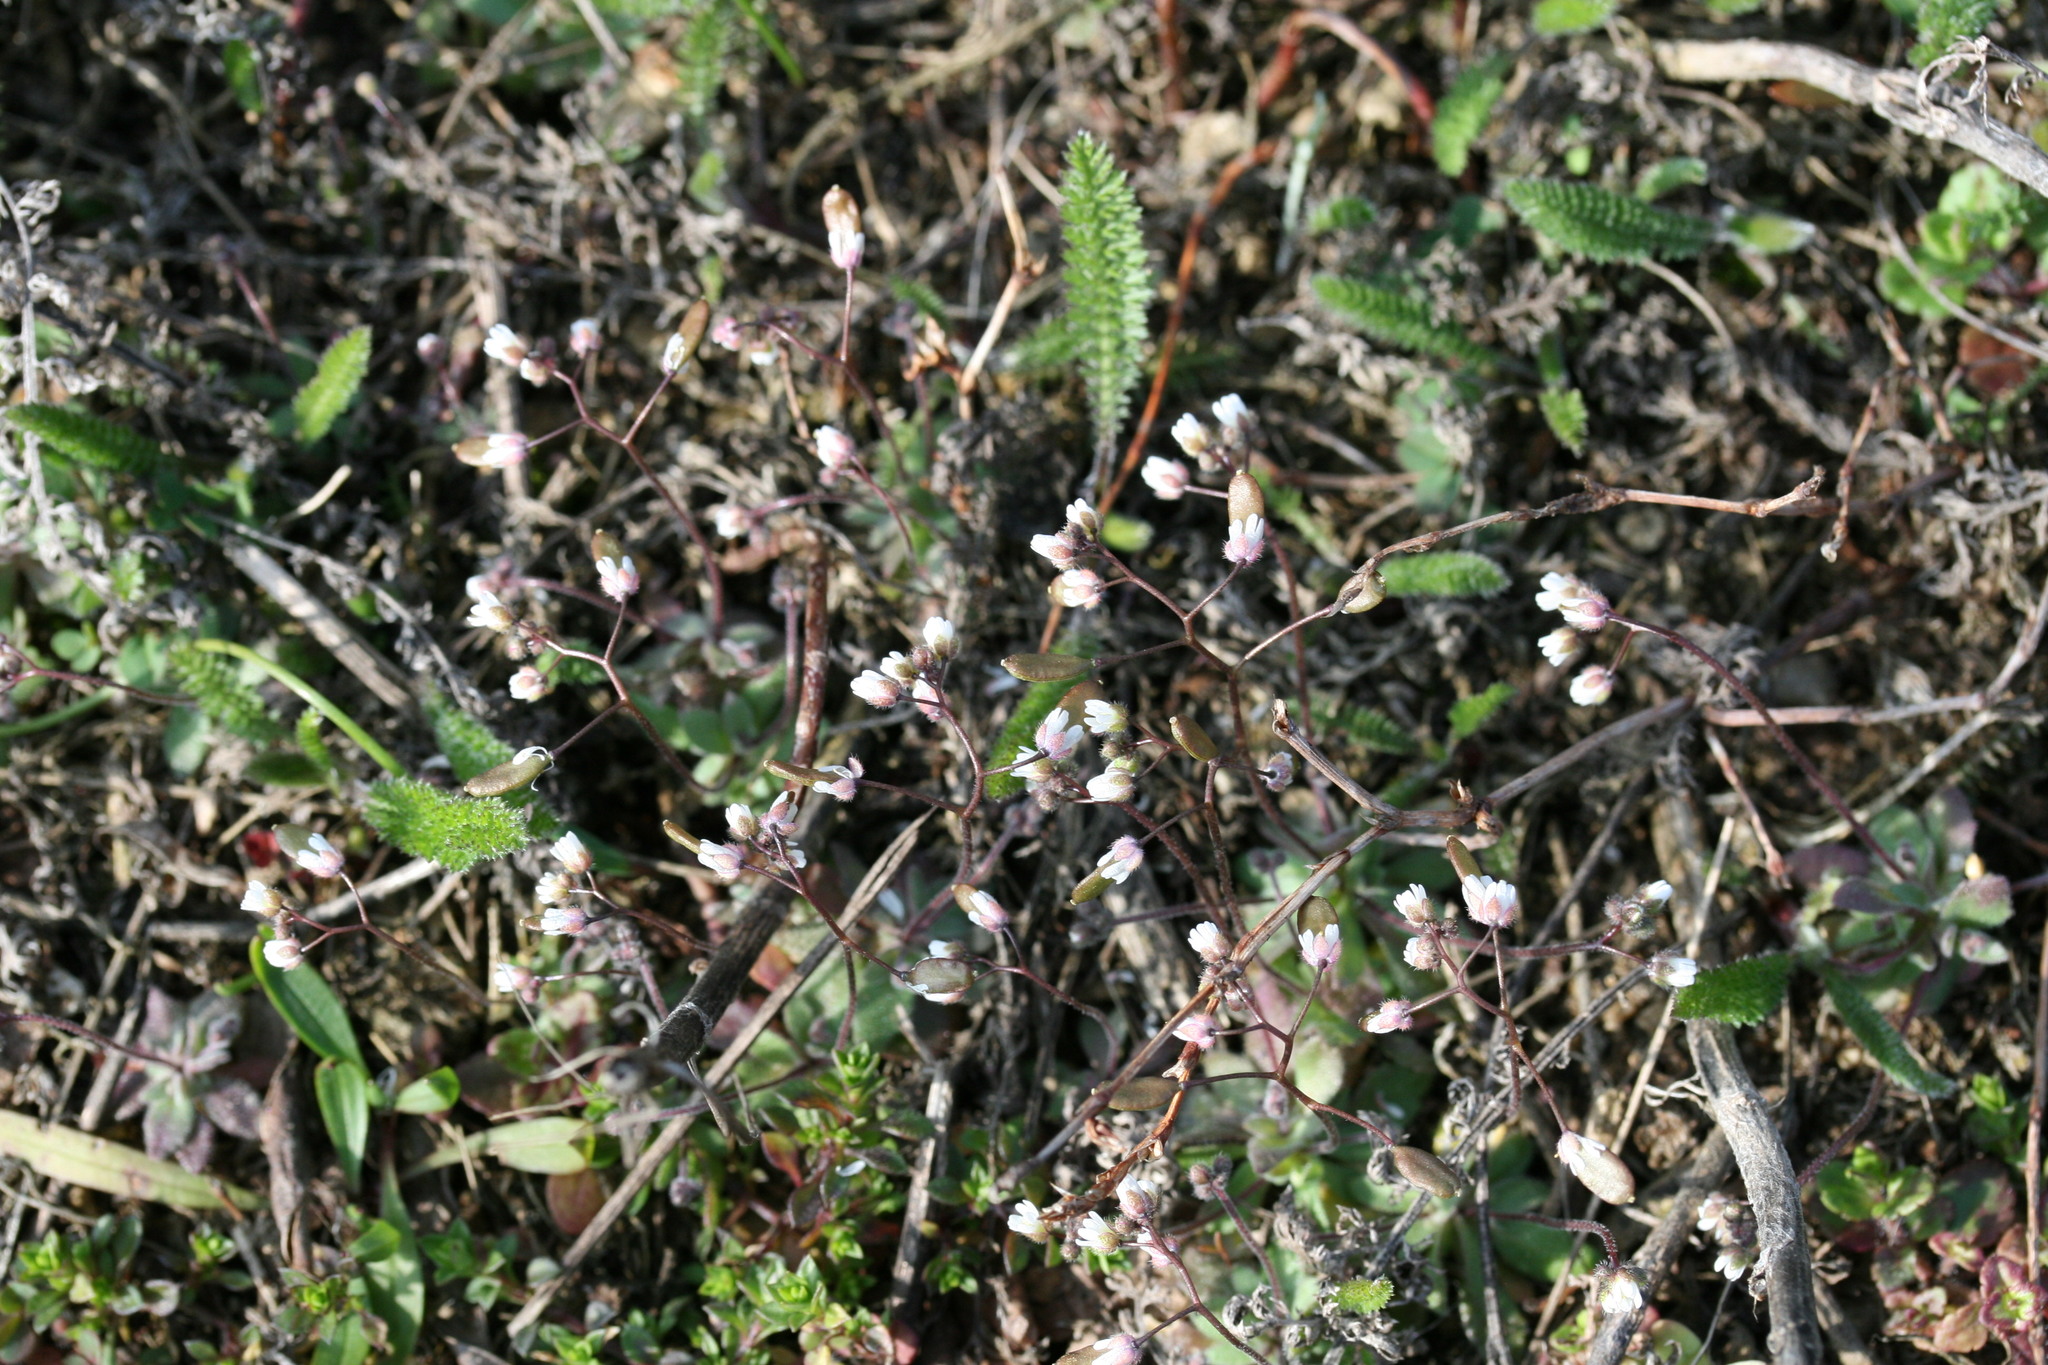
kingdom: Plantae
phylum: Tracheophyta
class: Magnoliopsida
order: Brassicales
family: Brassicaceae
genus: Draba
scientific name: Draba verna
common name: Spring draba
